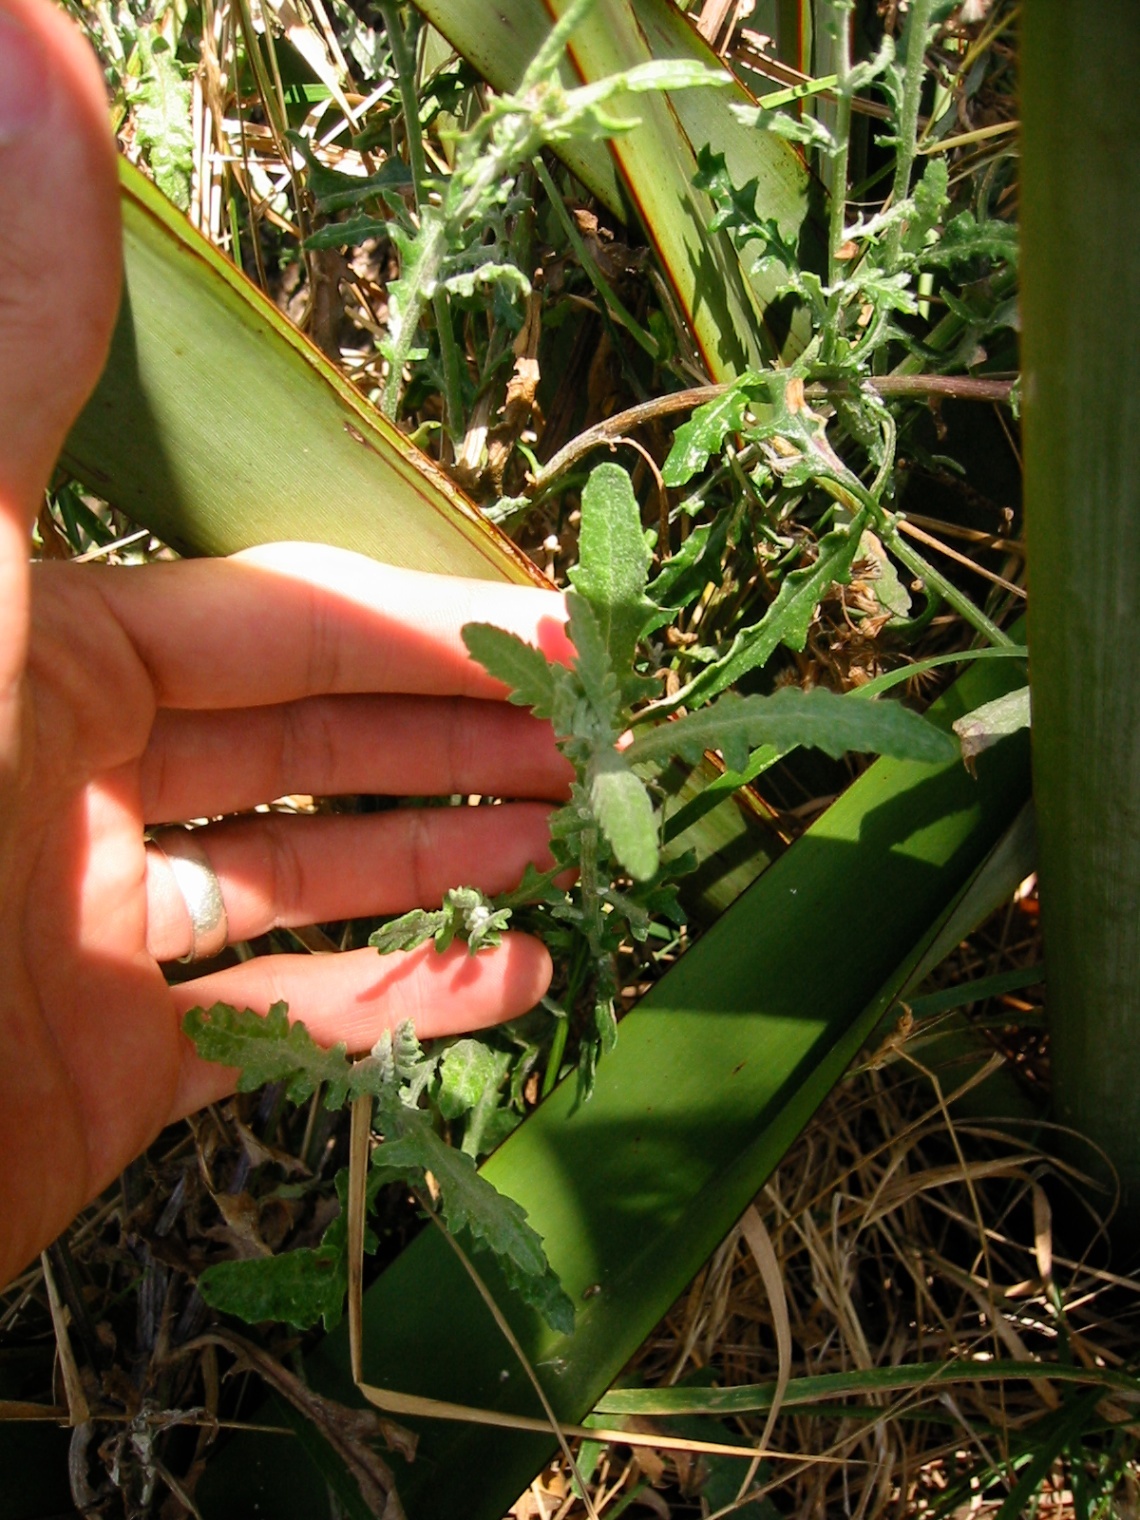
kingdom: Plantae
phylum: Tracheophyta
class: Magnoliopsida
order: Asterales
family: Asteraceae
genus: Senecio
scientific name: Senecio glomeratus
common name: Cutleaf burnweed
